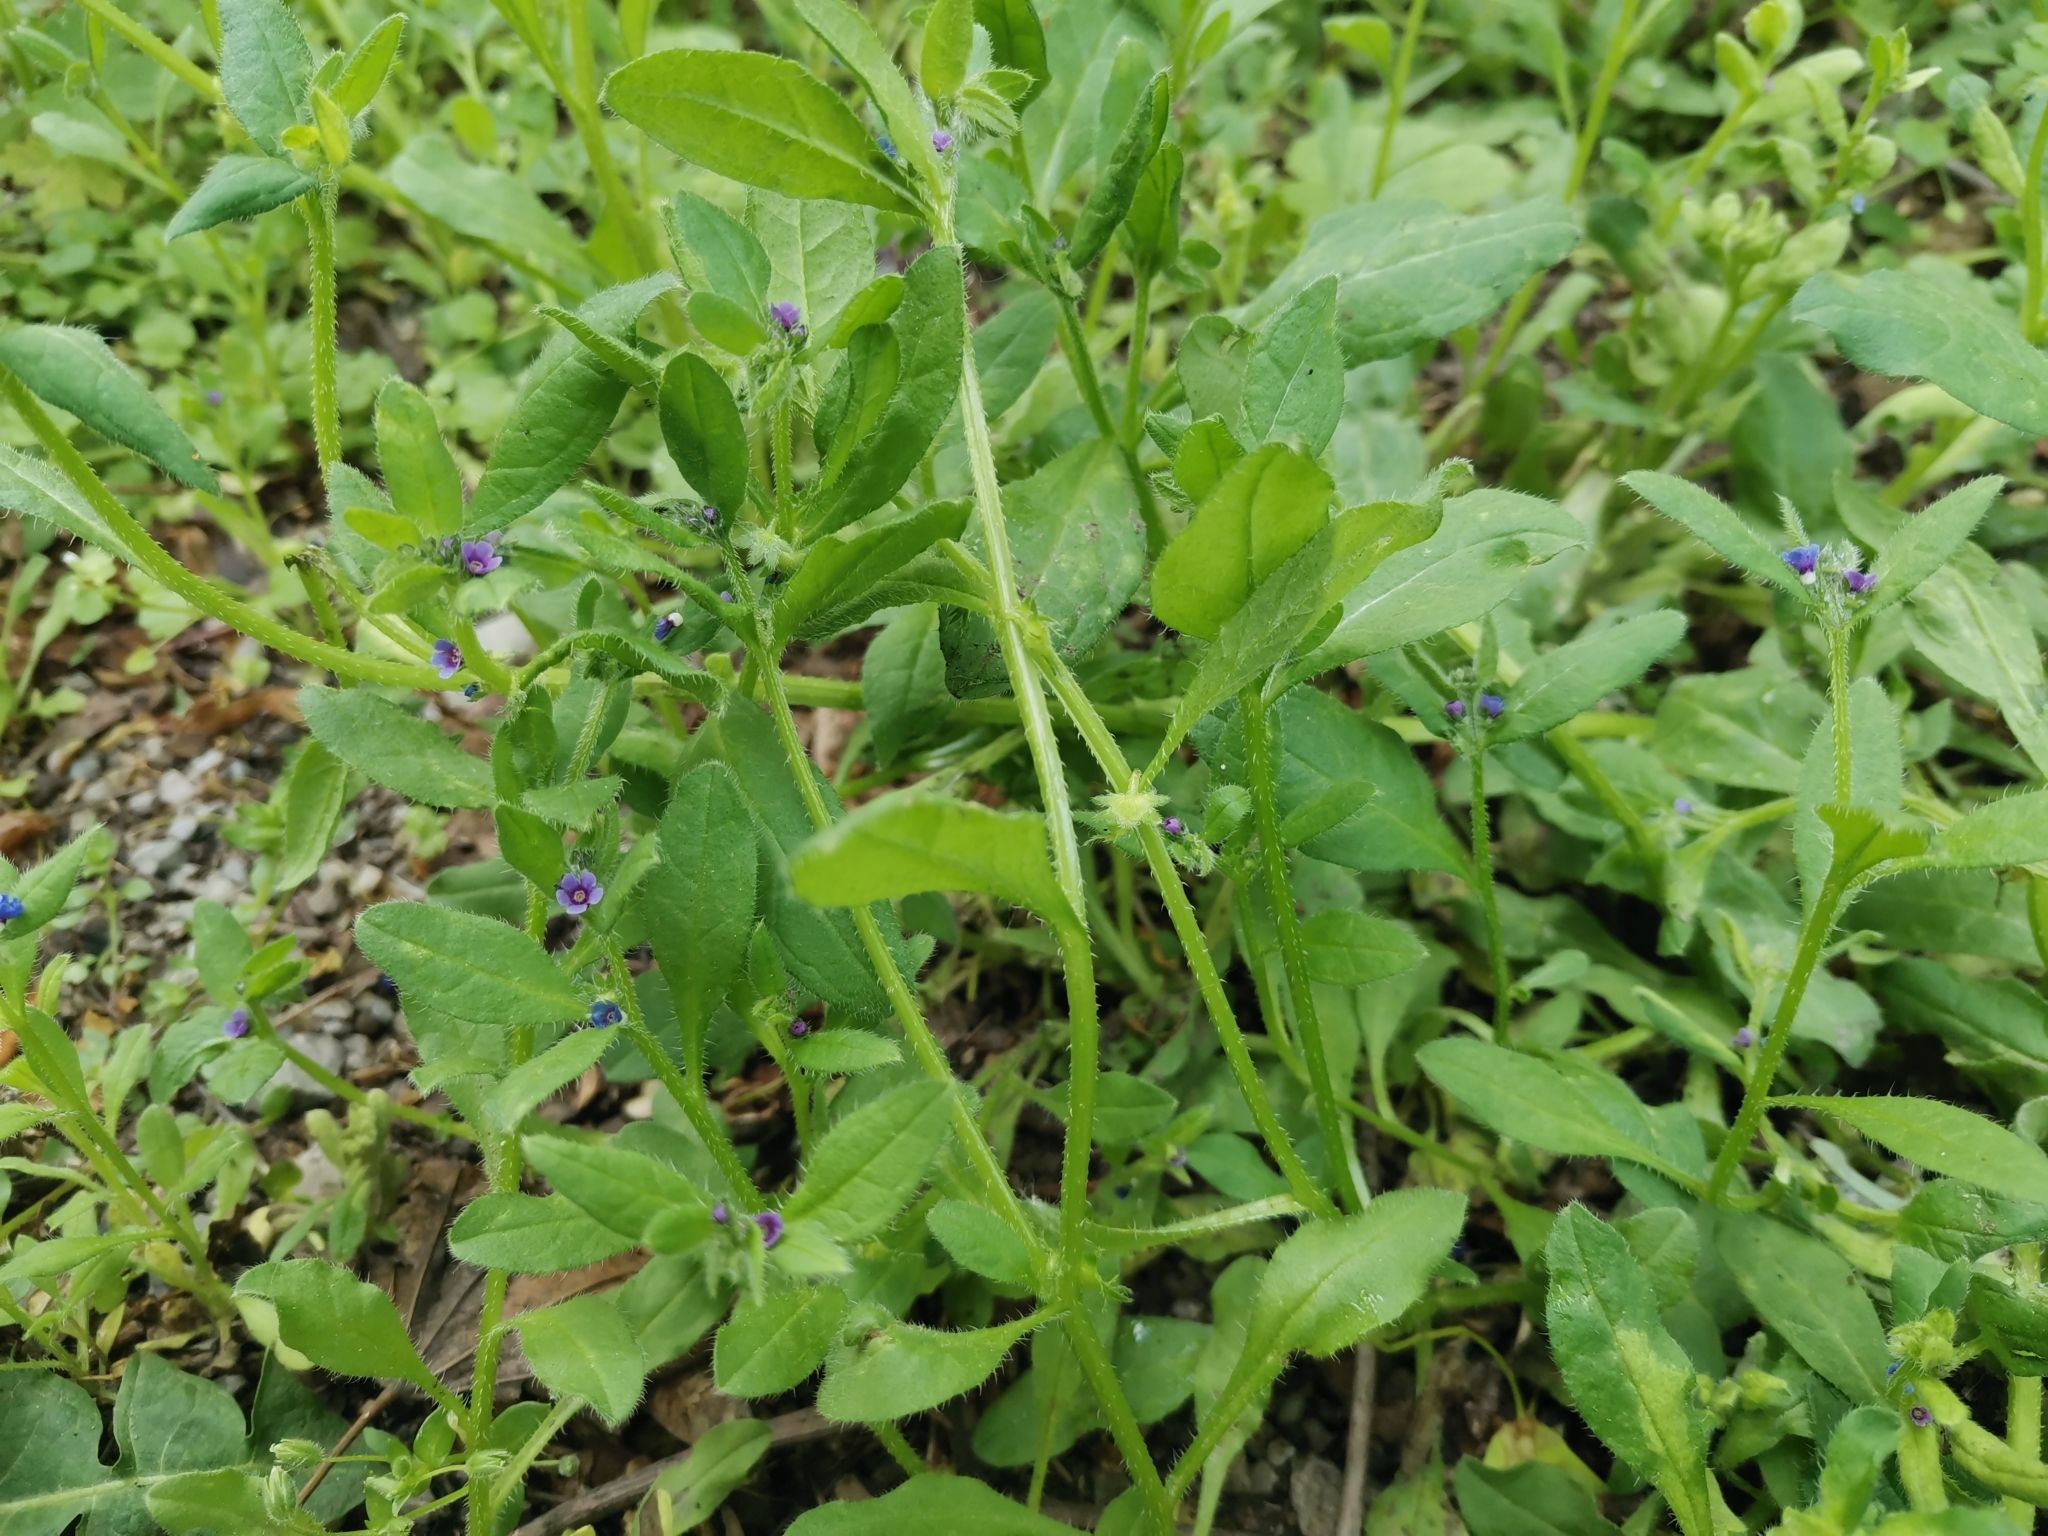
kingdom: Plantae
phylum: Tracheophyta
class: Magnoliopsida
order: Boraginales
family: Boraginaceae
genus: Asperugo
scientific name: Asperugo procumbens
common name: Madwort
